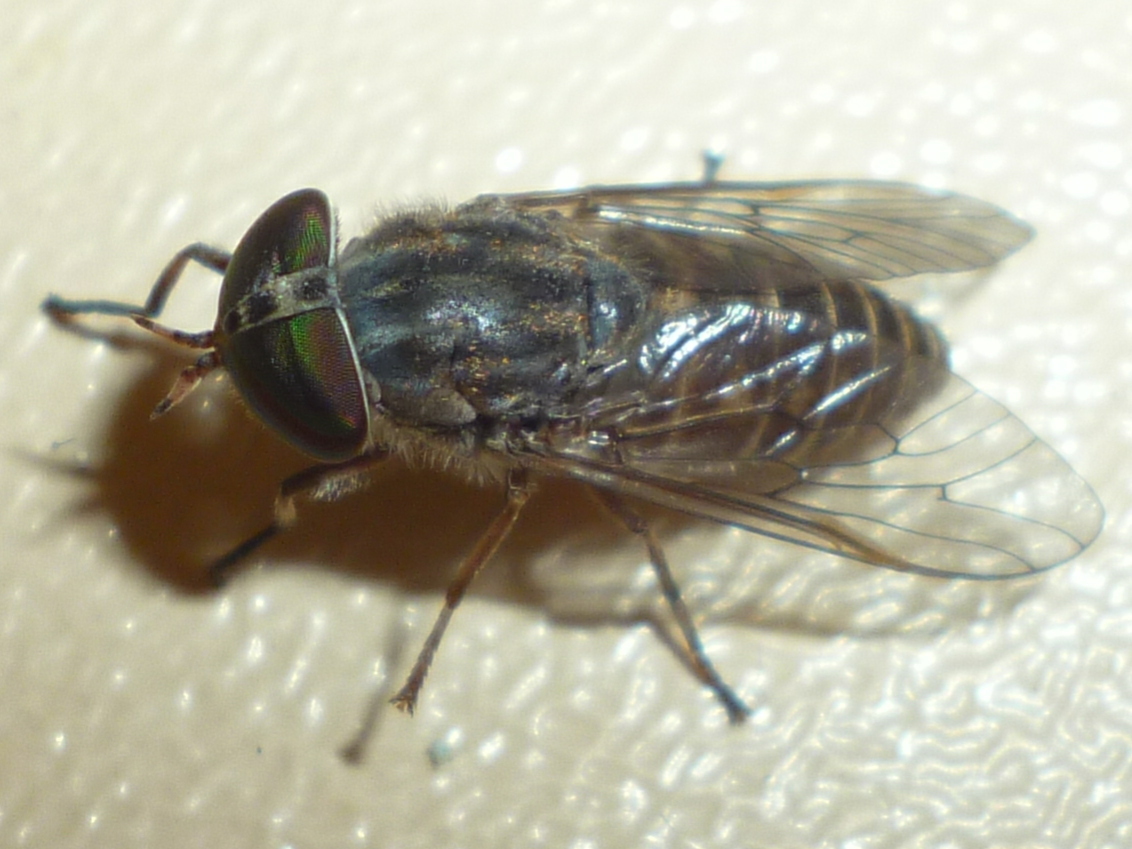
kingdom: Animalia
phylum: Arthropoda
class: Insecta
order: Diptera
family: Tabanidae
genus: Tabanus
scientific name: Tabanus pumilus
